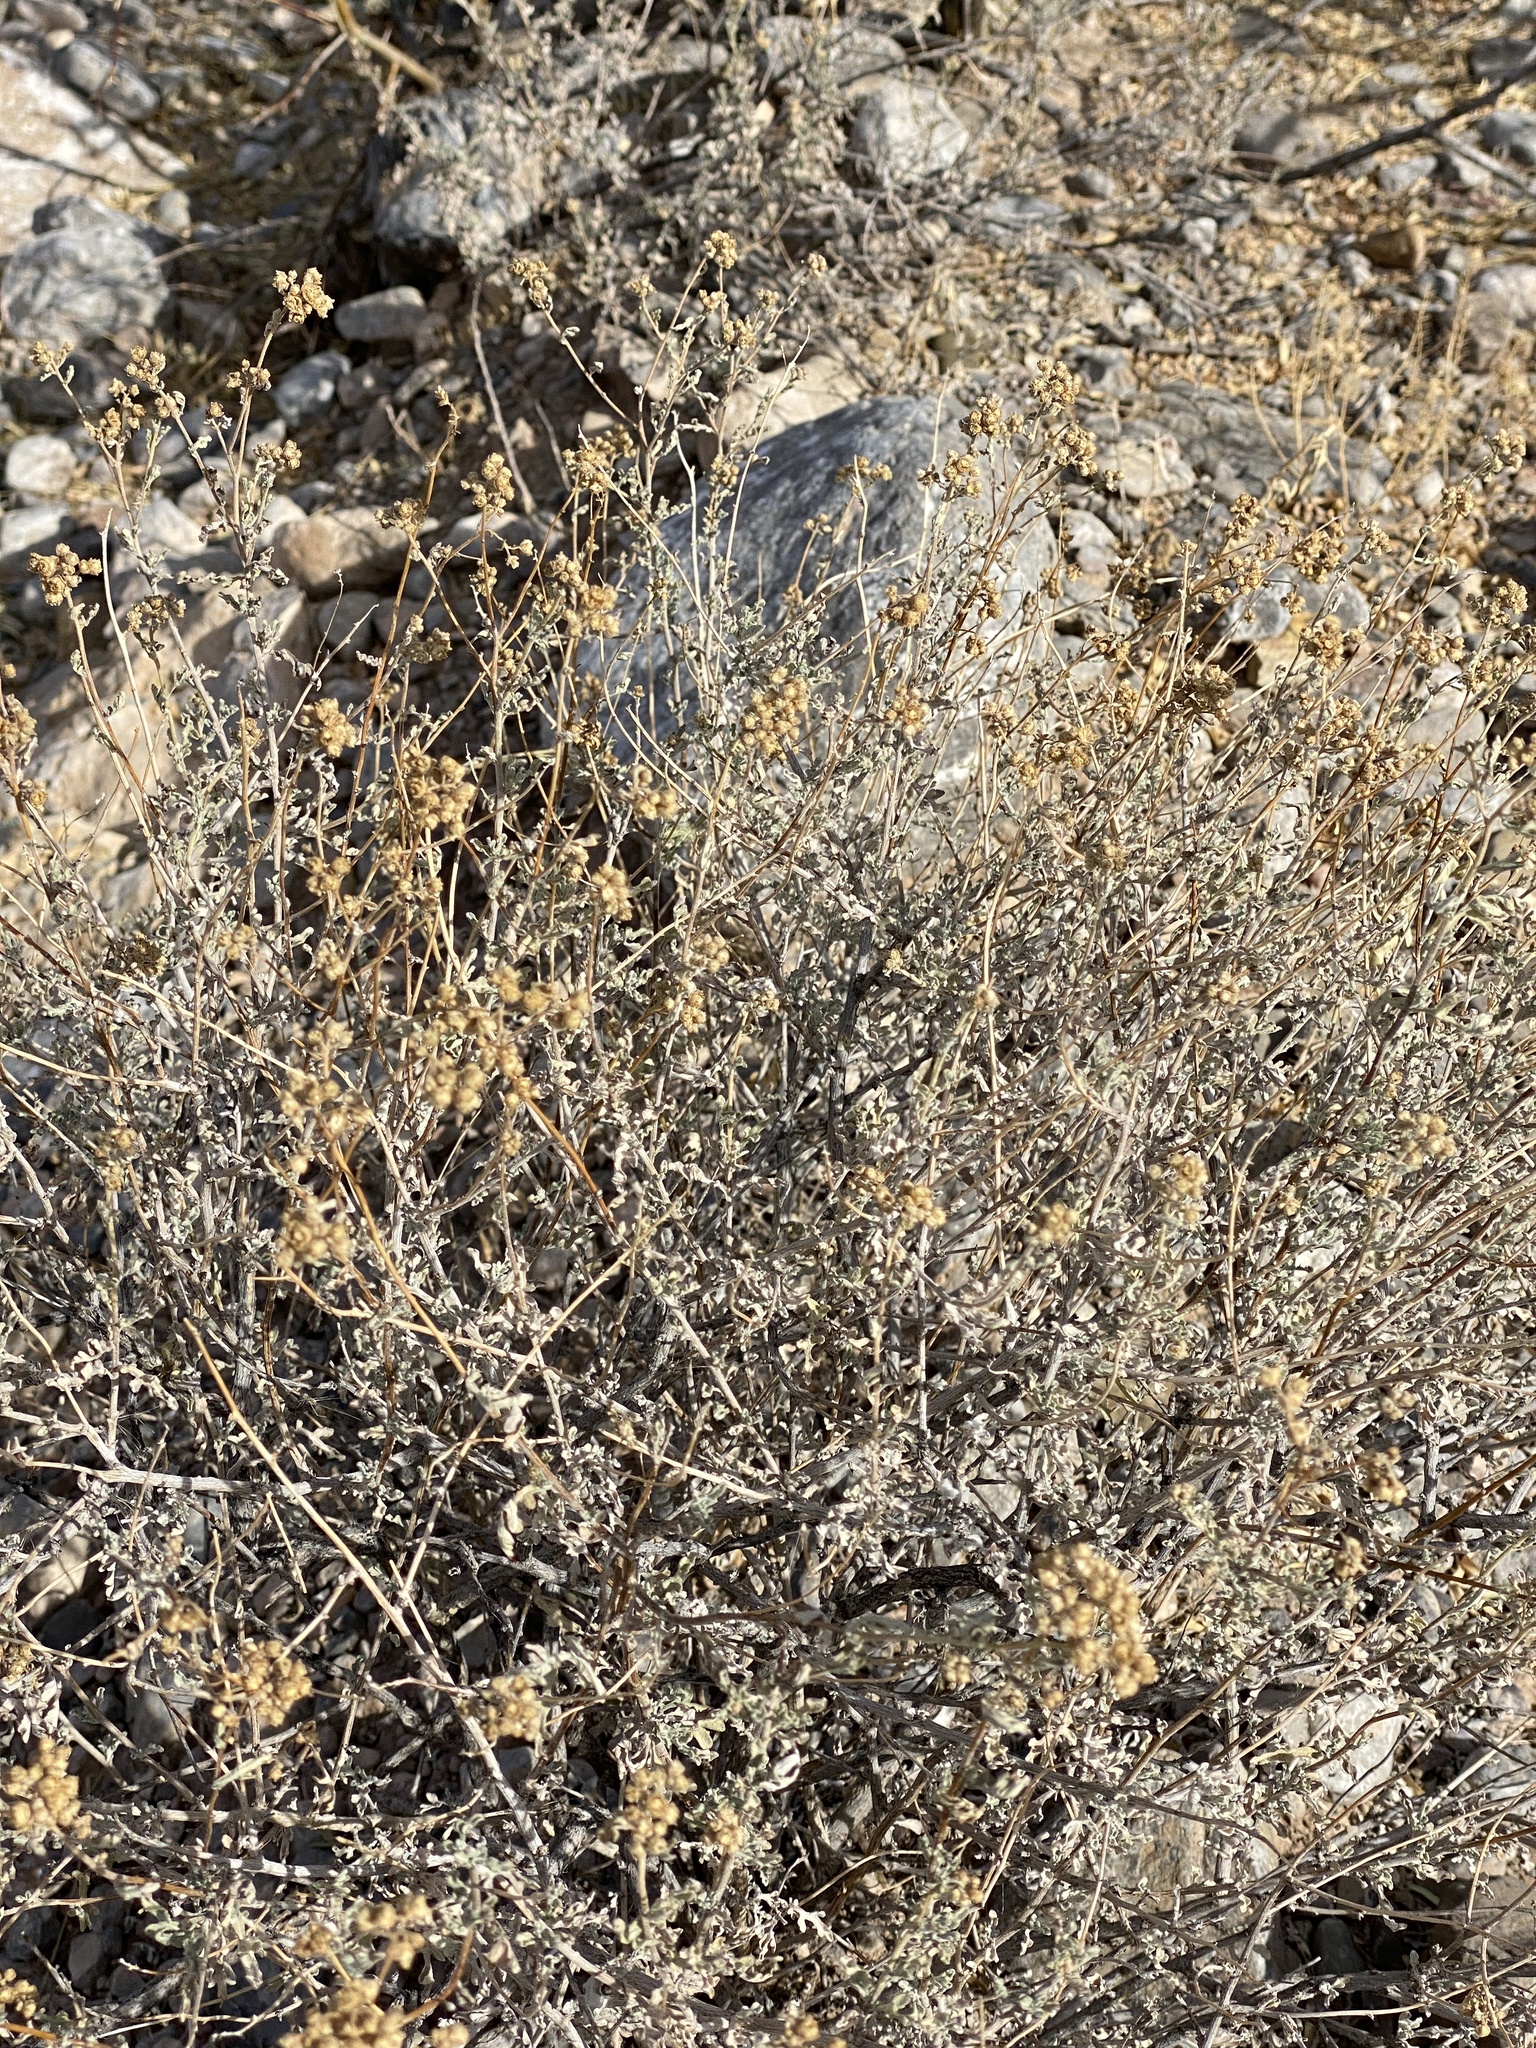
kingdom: Plantae
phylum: Tracheophyta
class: Magnoliopsida
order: Asterales
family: Asteraceae
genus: Parthenium
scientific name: Parthenium incanum
